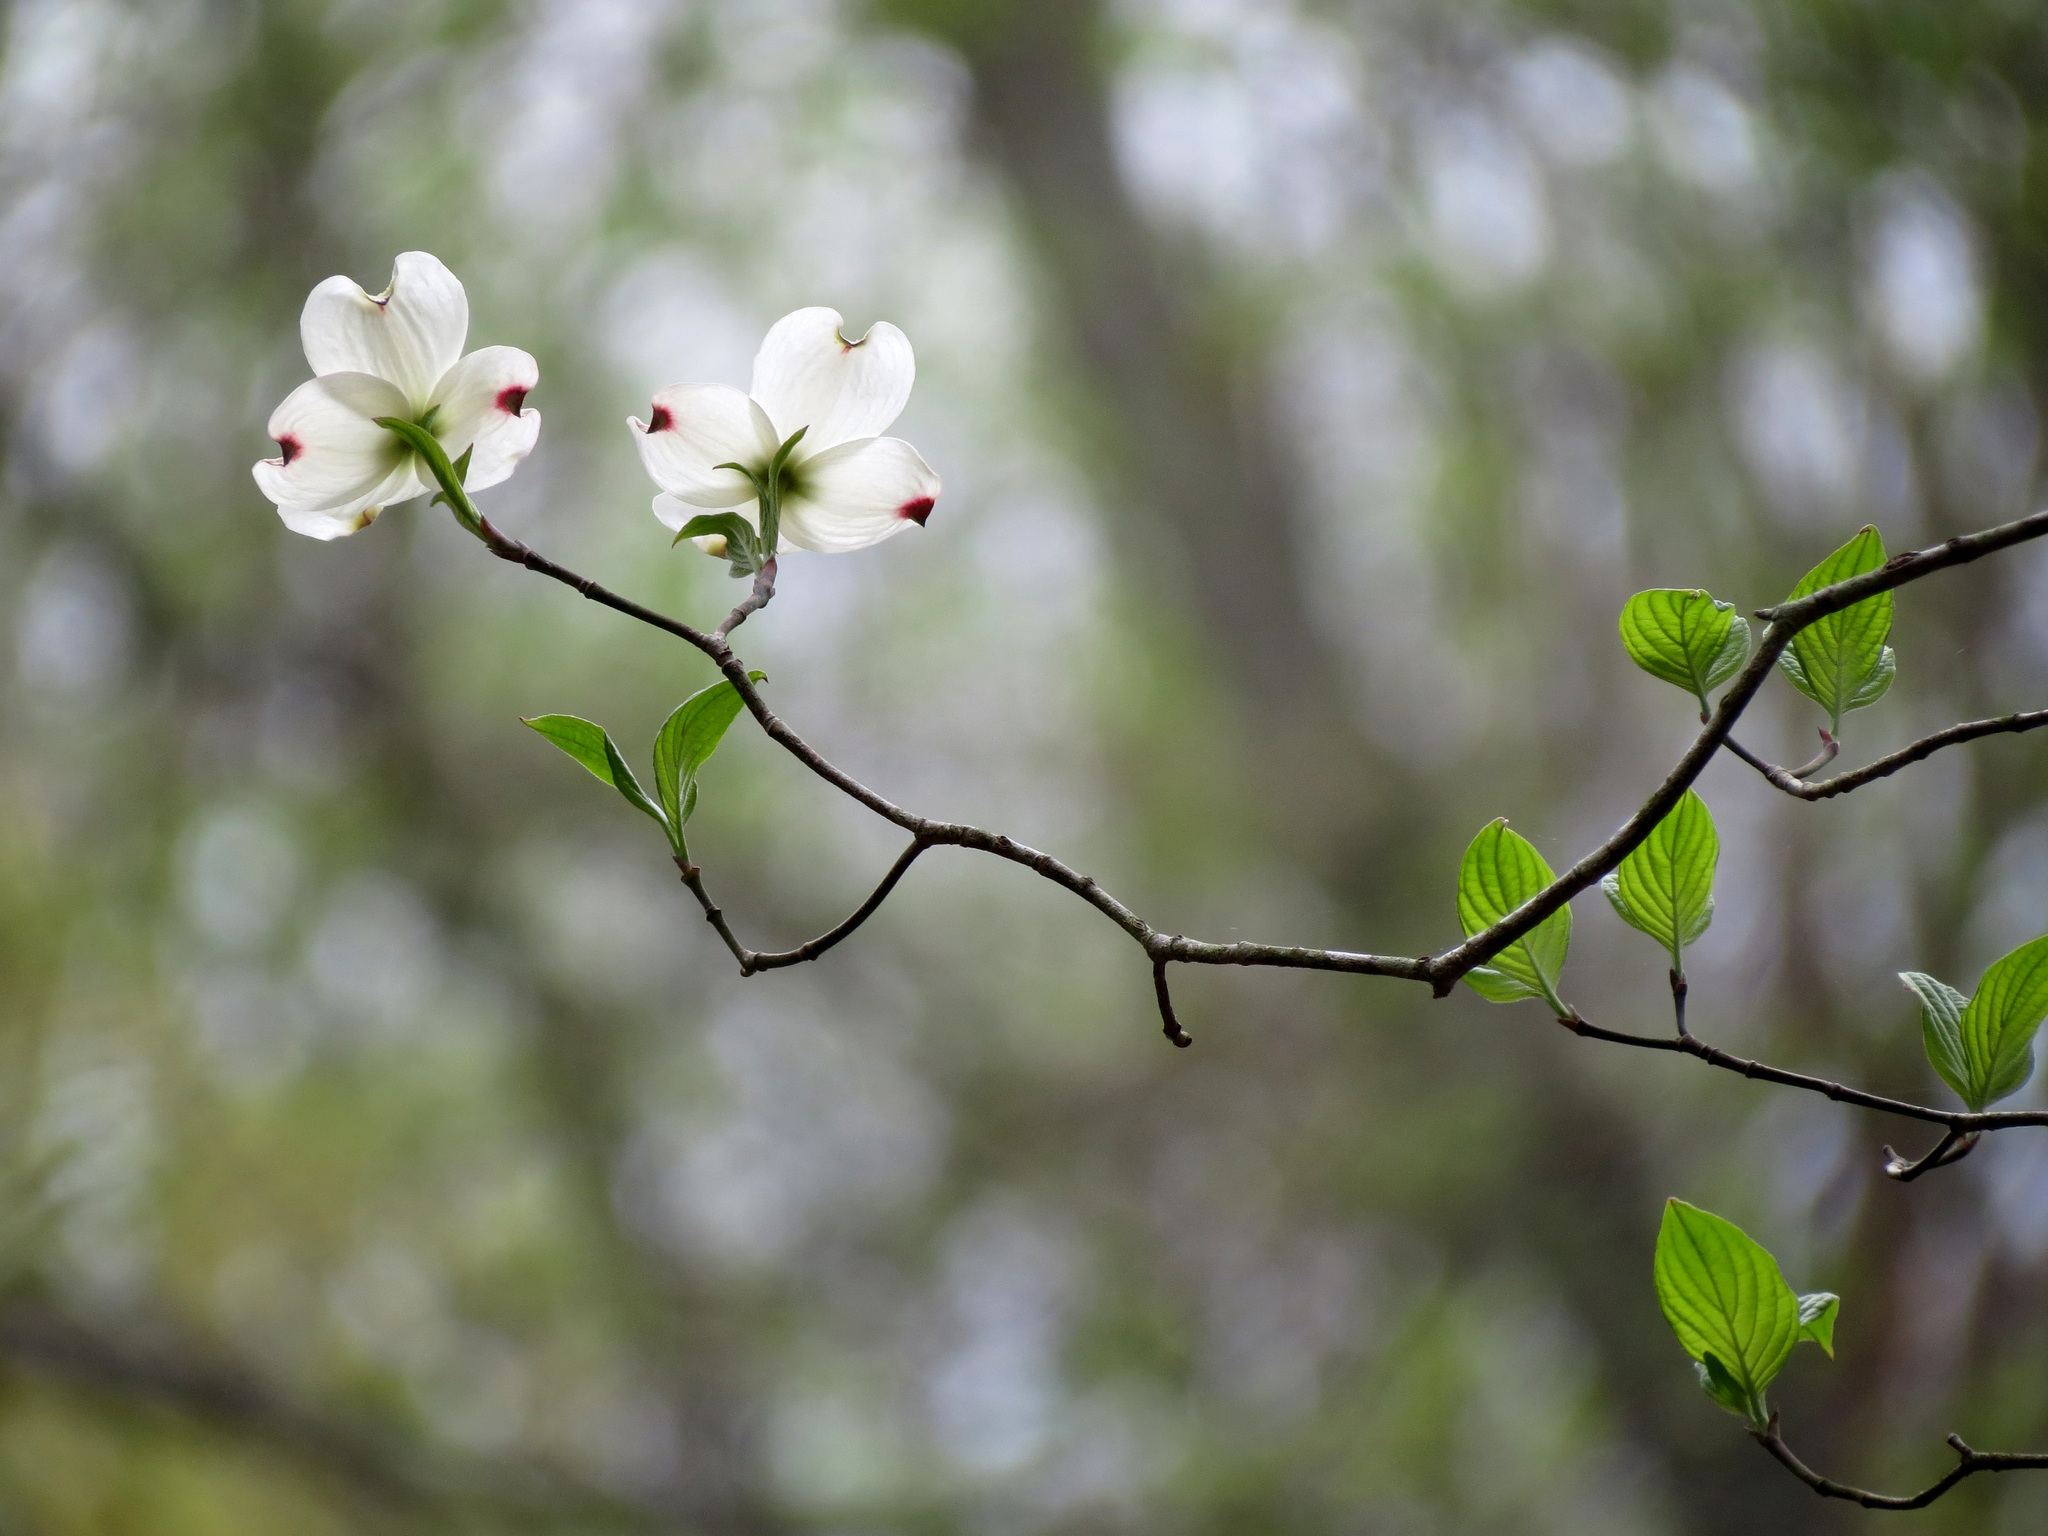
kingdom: Plantae
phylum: Tracheophyta
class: Magnoliopsida
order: Cornales
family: Cornaceae
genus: Cornus
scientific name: Cornus florida
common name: Flowering dogwood
